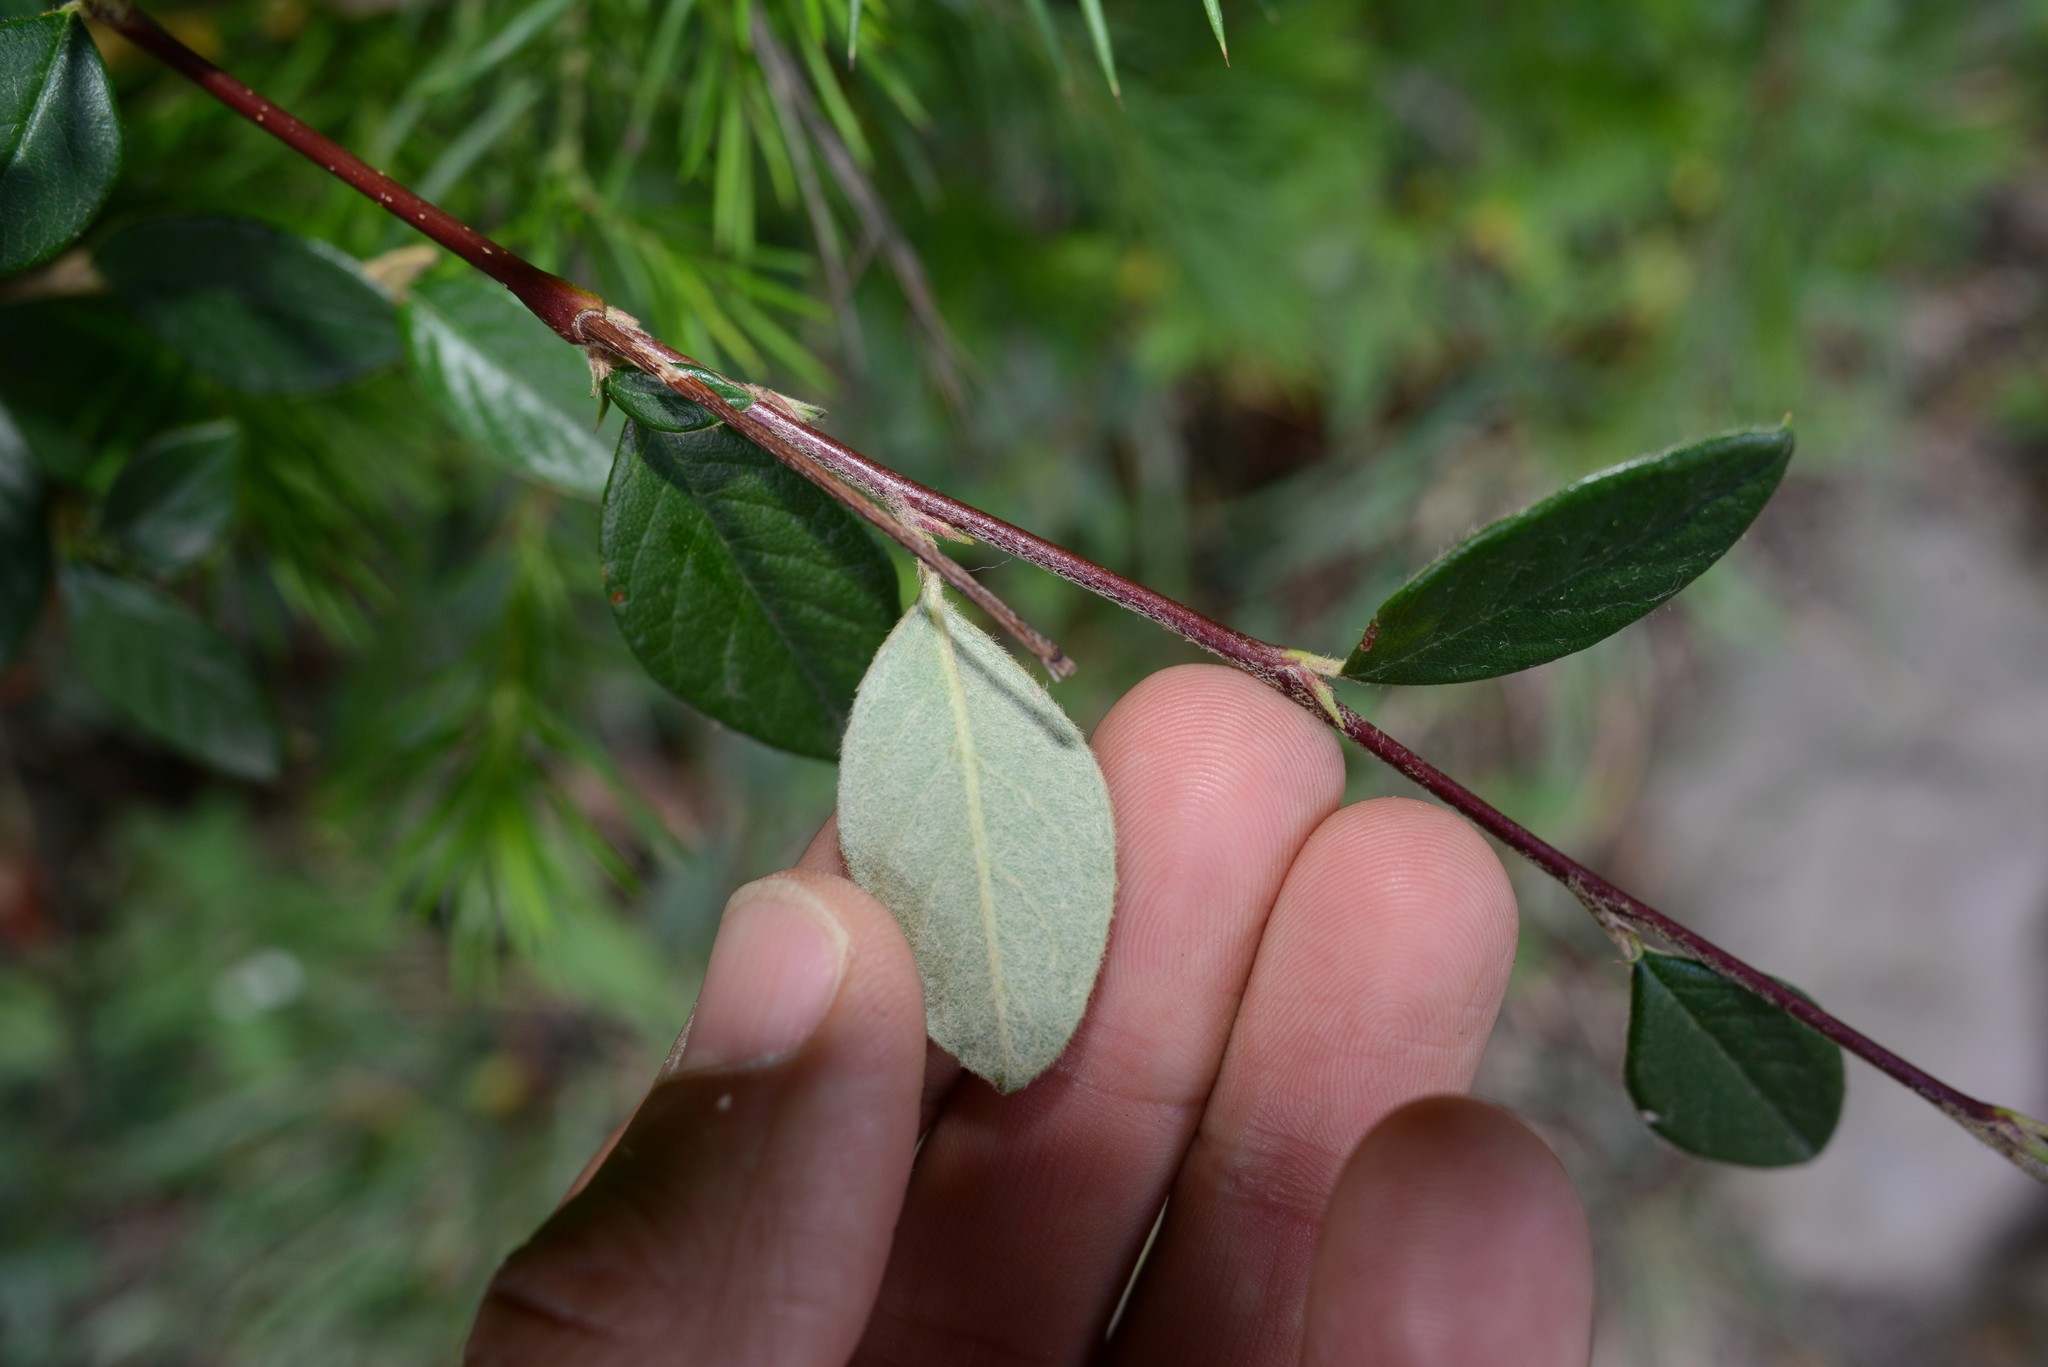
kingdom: Plantae
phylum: Tracheophyta
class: Magnoliopsida
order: Rosales
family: Rosaceae
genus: Cotoneaster
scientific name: Cotoneaster coriaceus
